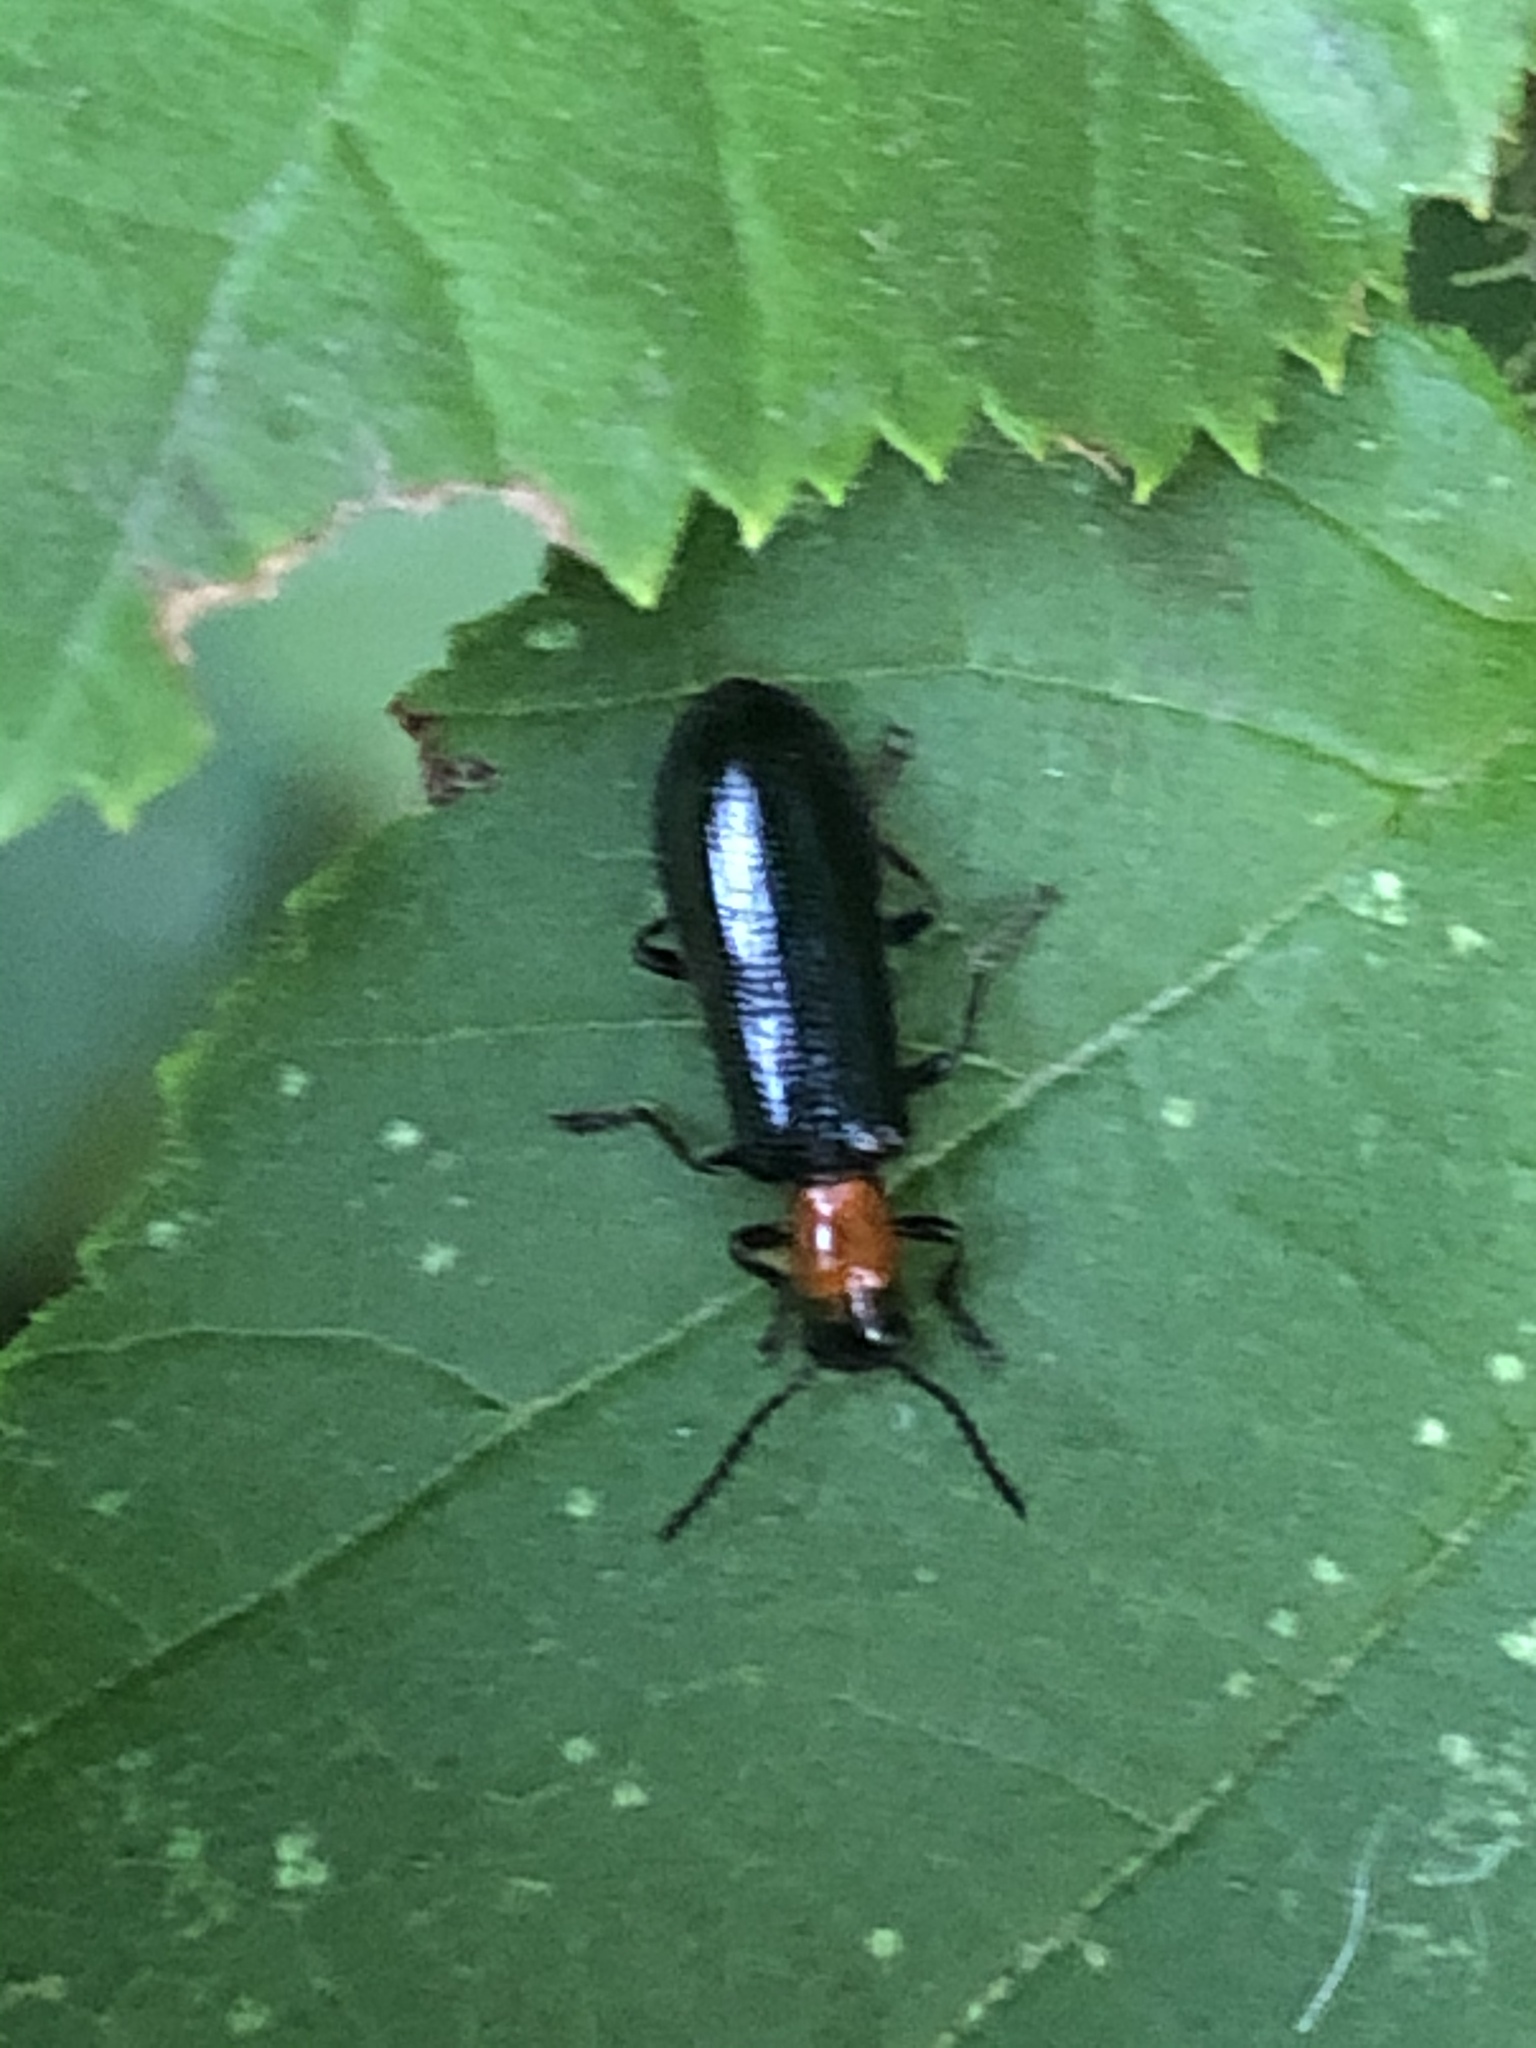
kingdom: Animalia
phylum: Arthropoda
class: Insecta
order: Coleoptera
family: Cleridae
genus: Tillus
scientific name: Tillus elongatus
